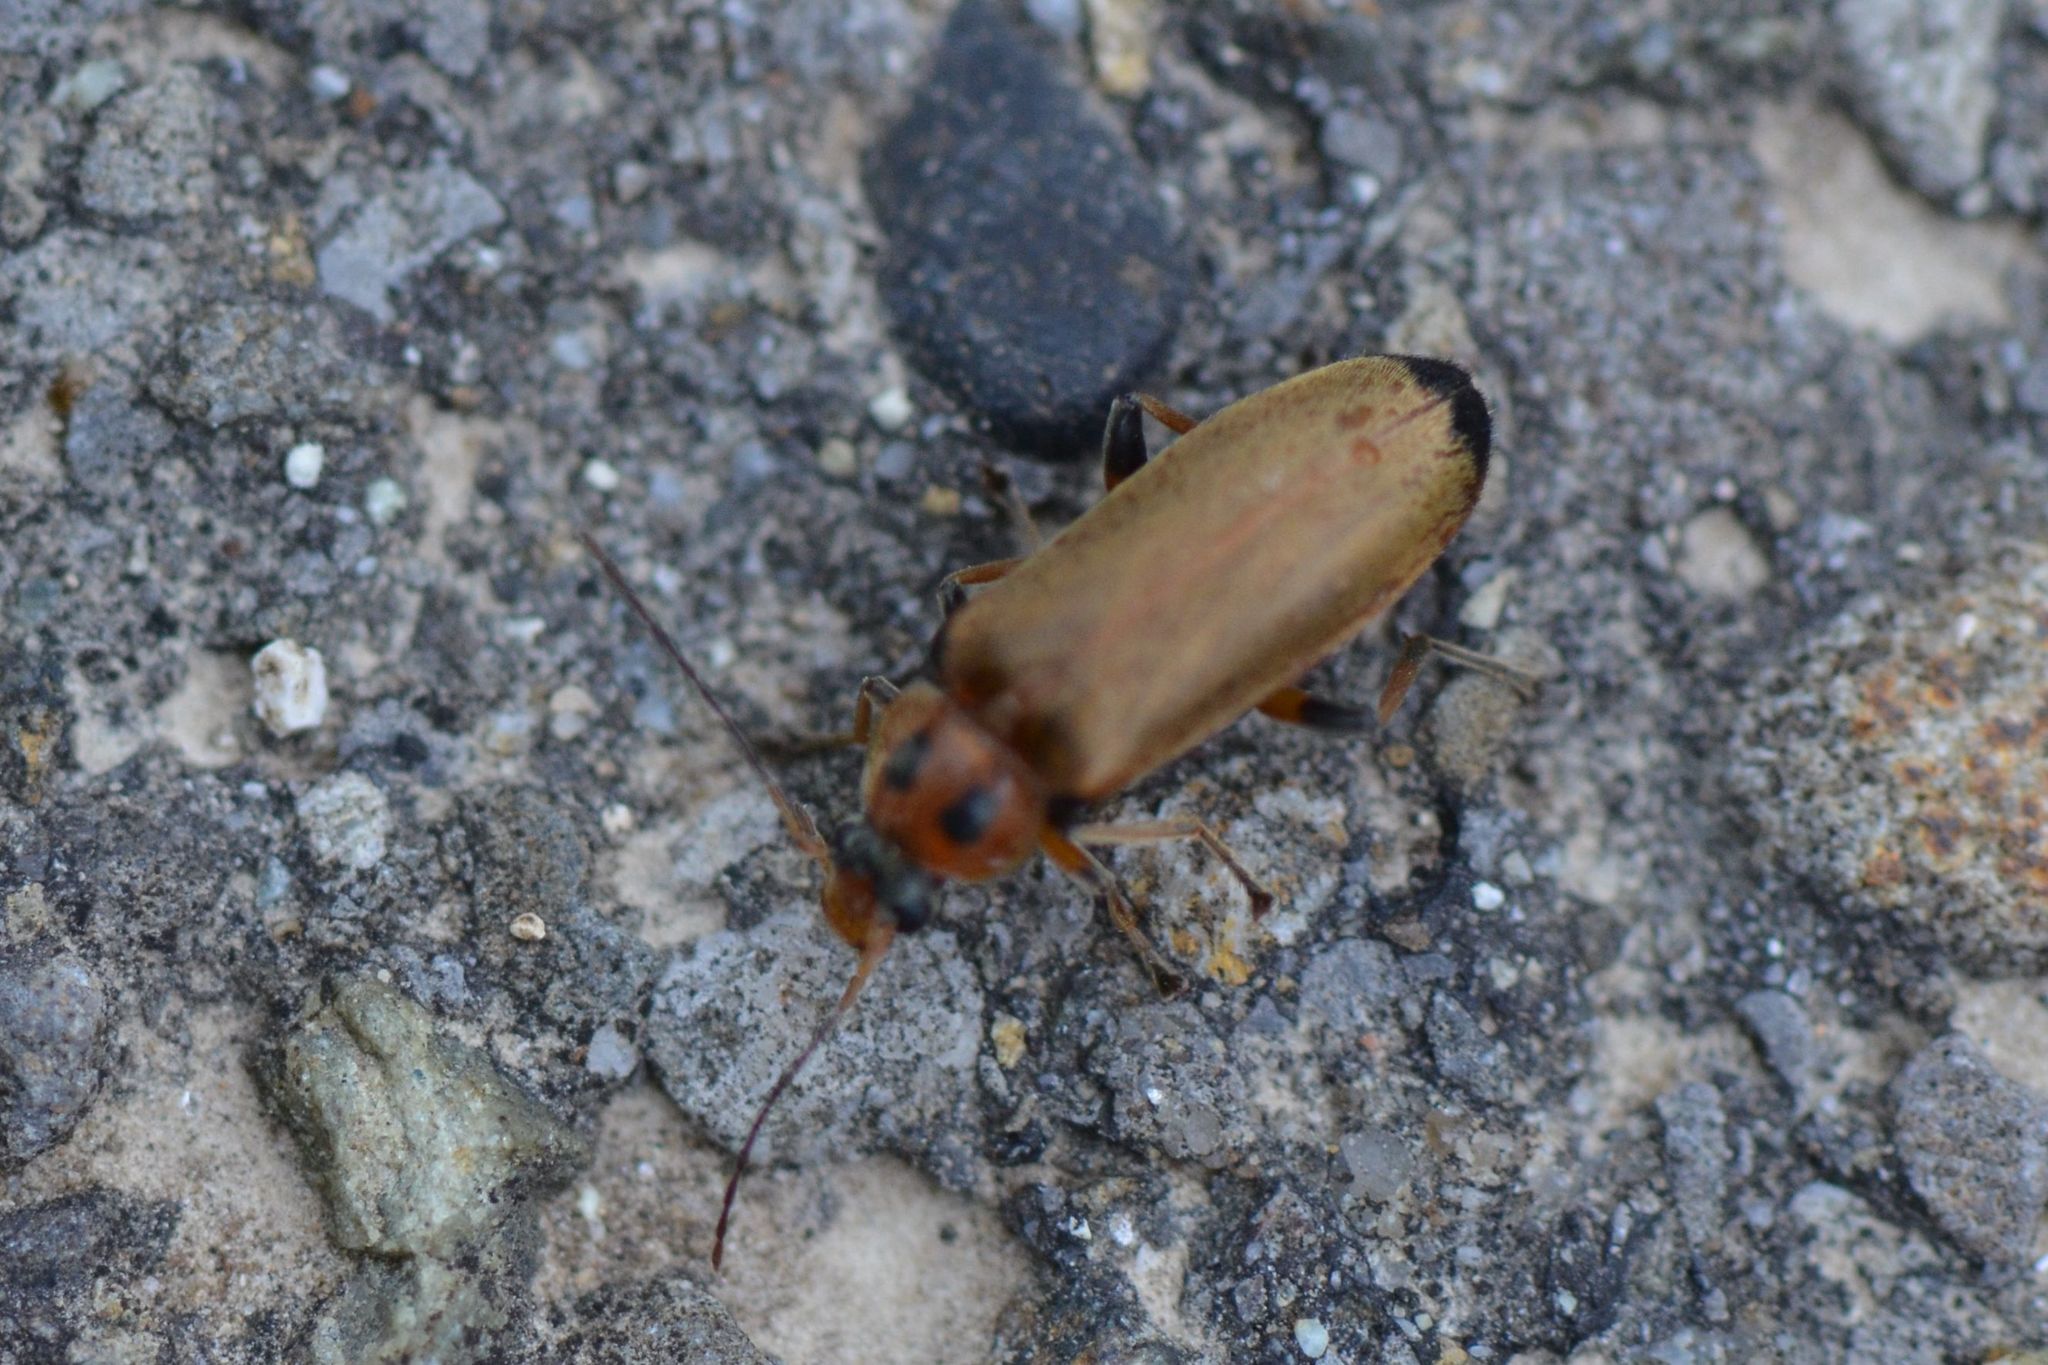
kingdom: Animalia
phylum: Arthropoda
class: Insecta
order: Coleoptera
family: Melandryidae
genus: Osphya
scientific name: Osphya bipunctata
